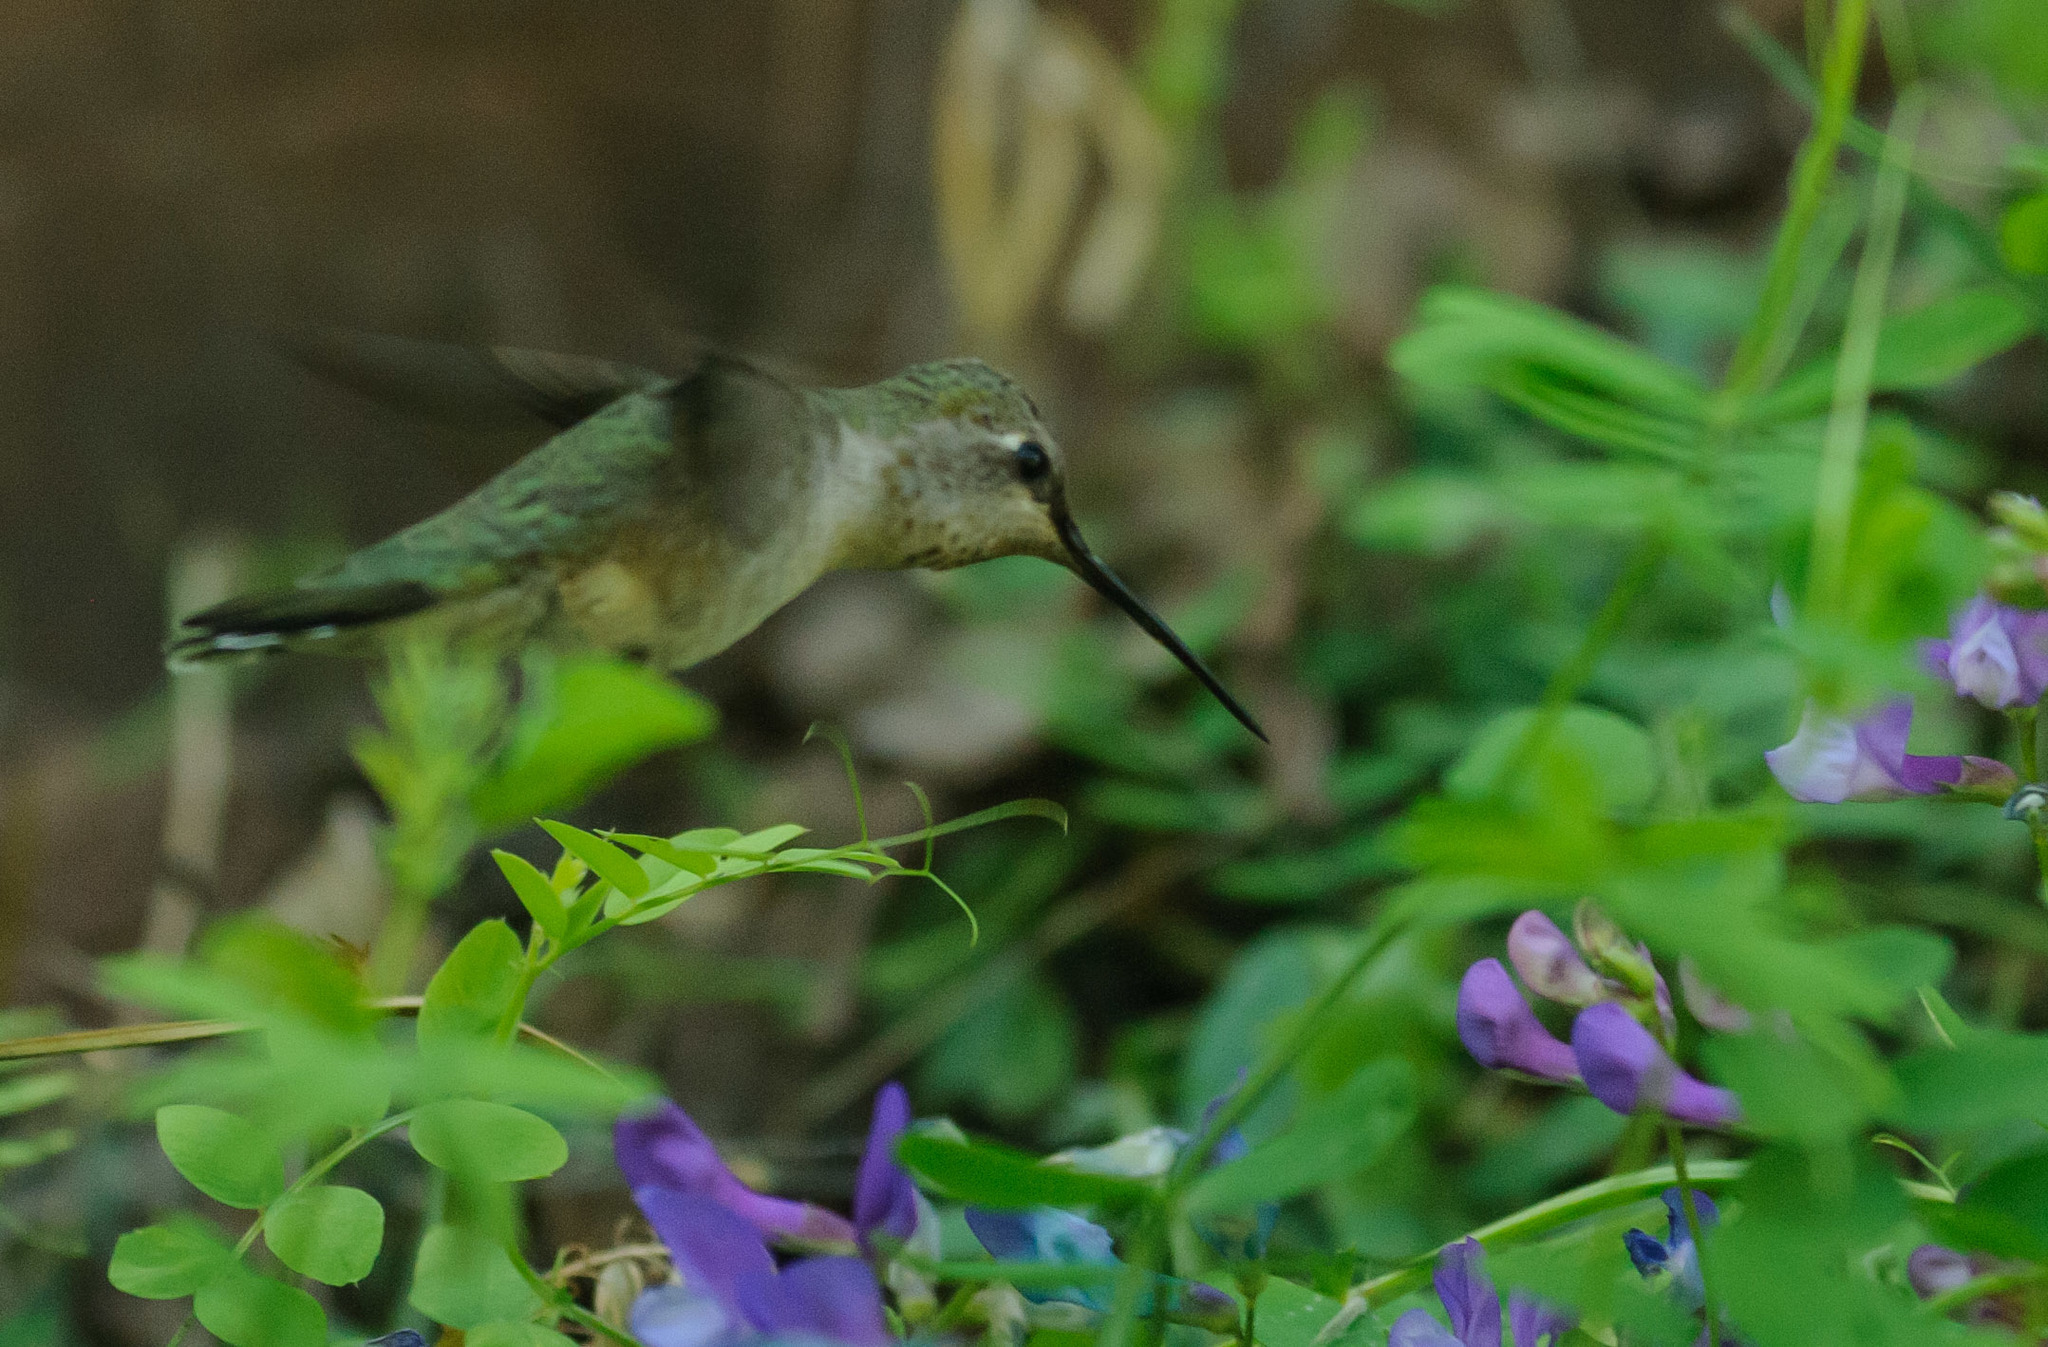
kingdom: Animalia
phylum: Chordata
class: Aves
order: Apodiformes
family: Trochilidae
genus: Archilochus
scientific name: Archilochus alexandri
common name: Black-chinned hummingbird
